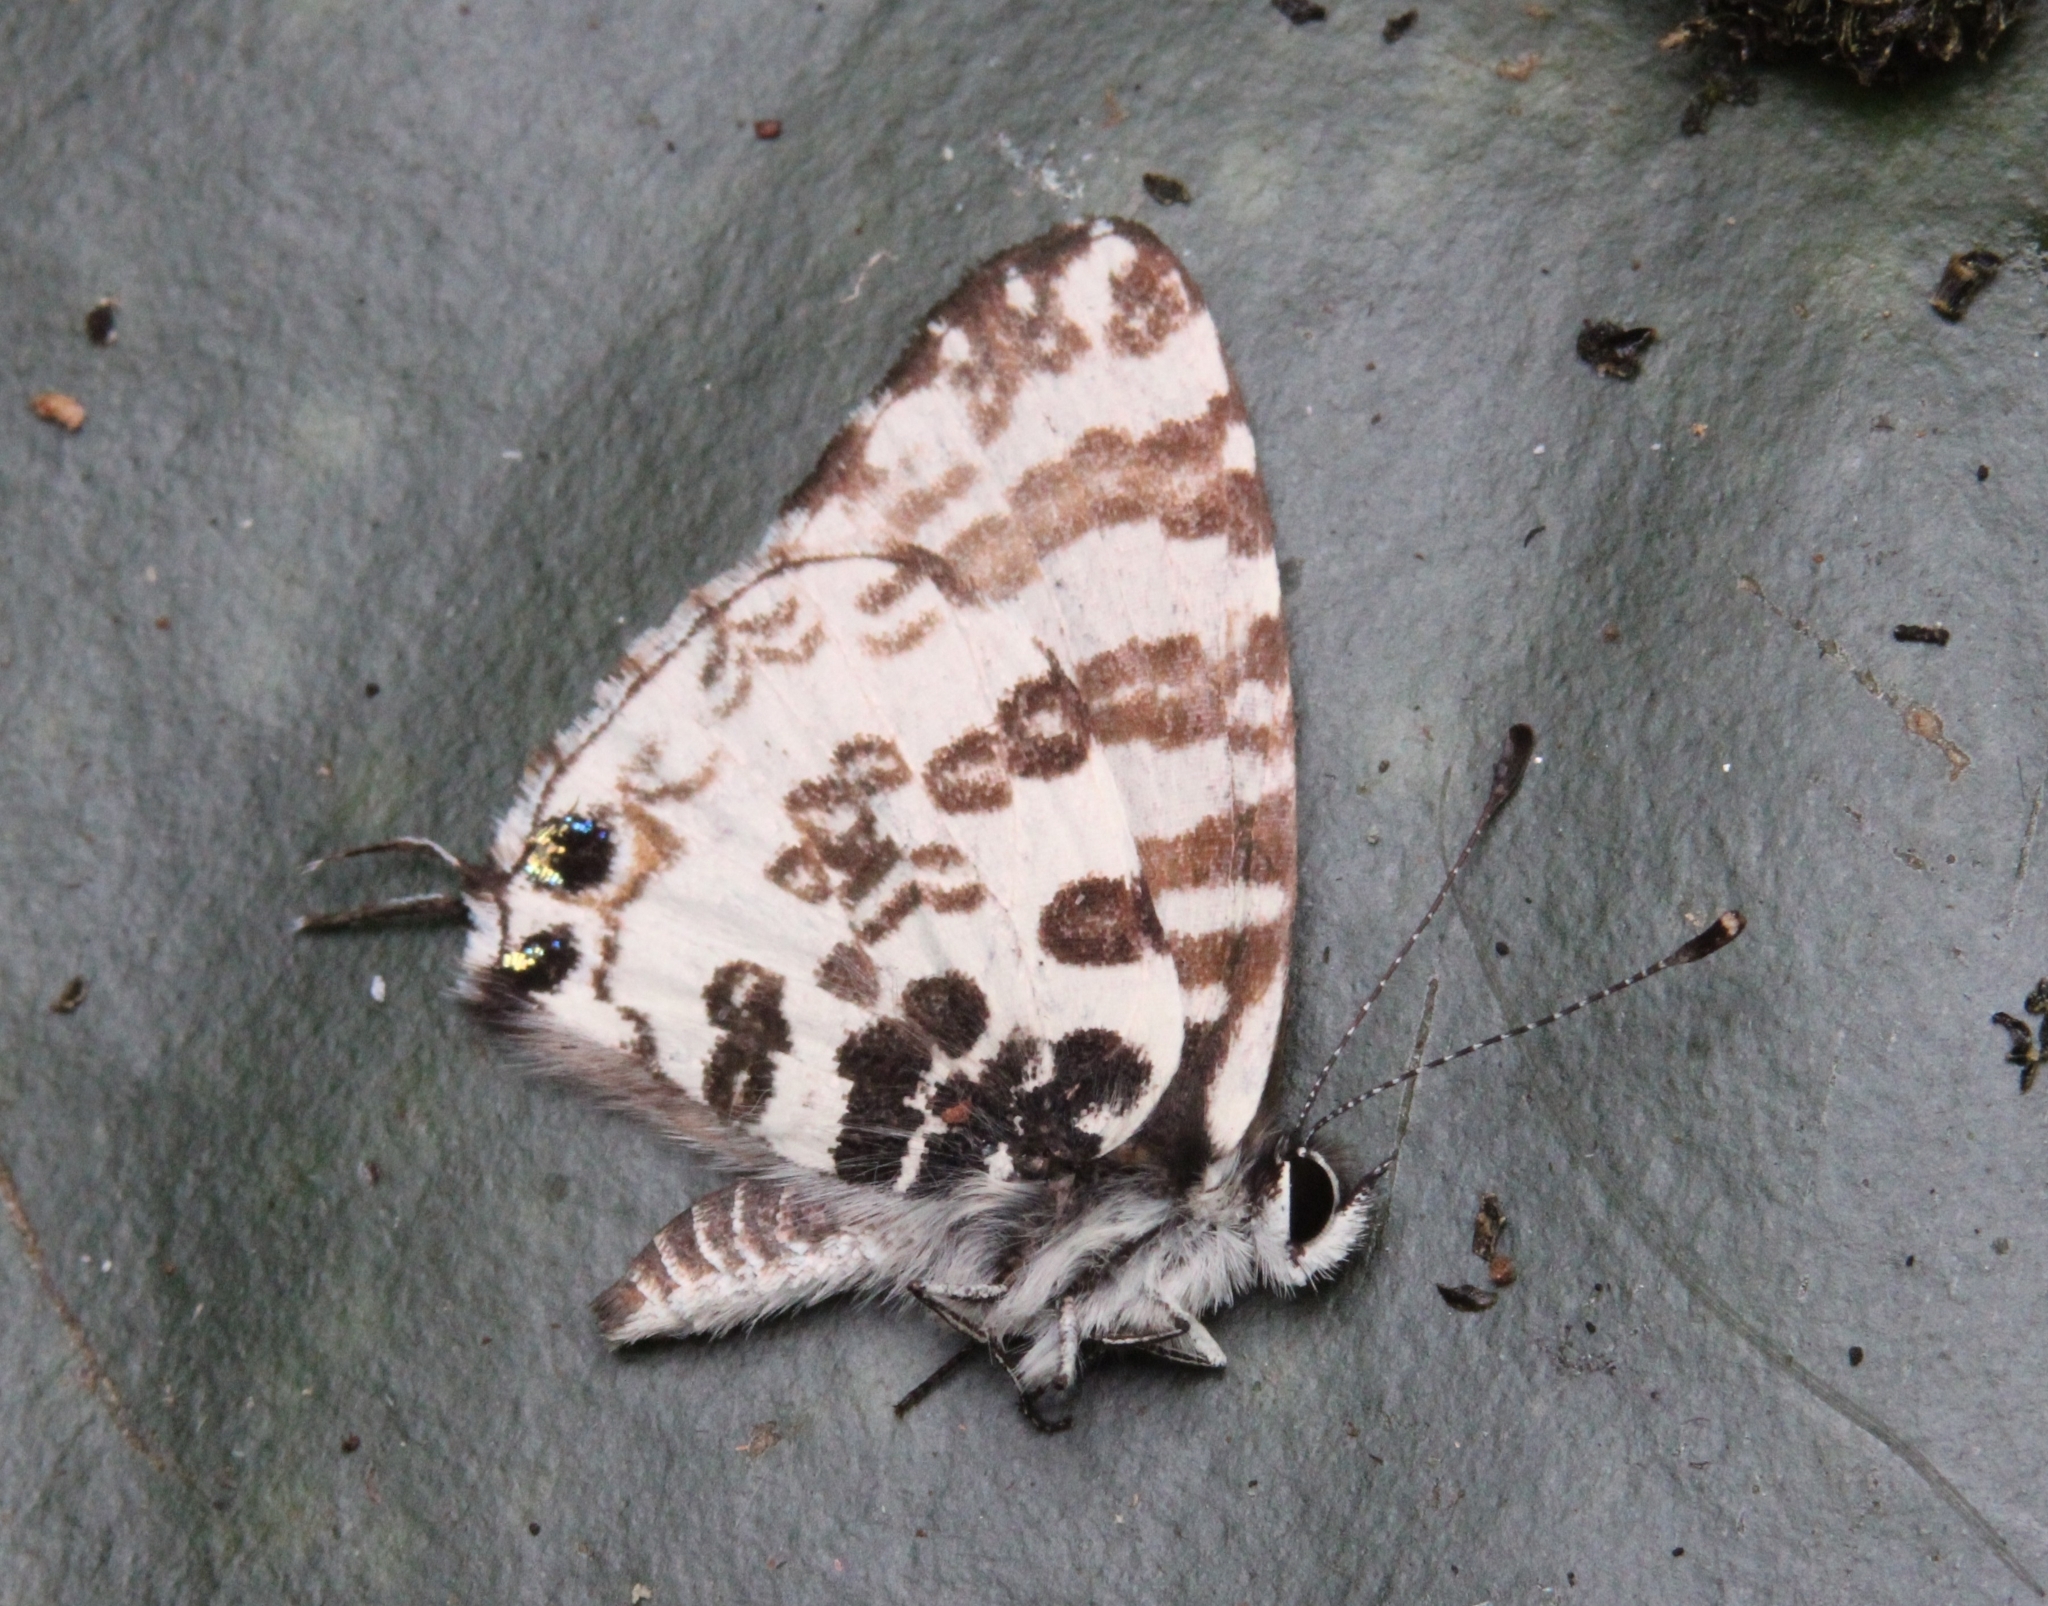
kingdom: Animalia
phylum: Arthropoda
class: Insecta
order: Lepidoptera
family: Lycaenidae
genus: Uranothauma
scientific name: Uranothauma antinorii
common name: Antinori's branded blue
